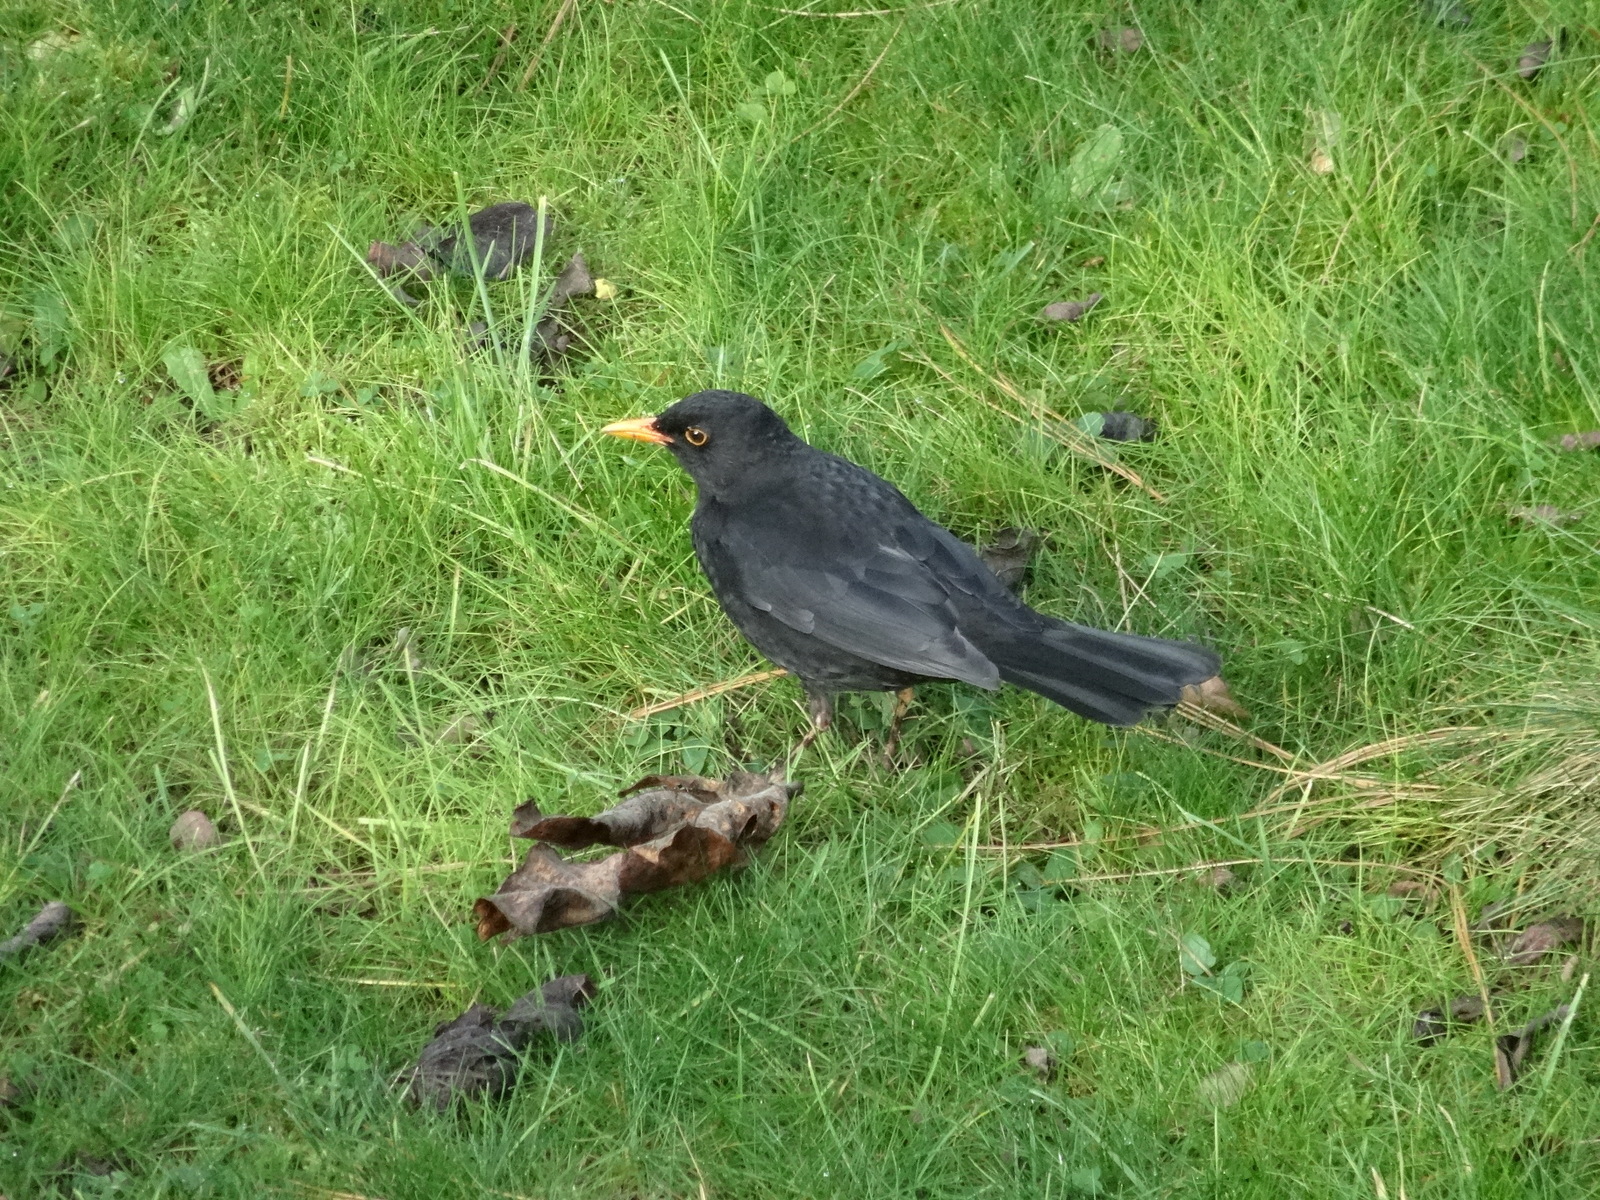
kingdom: Animalia
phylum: Chordata
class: Aves
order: Passeriformes
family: Turdidae
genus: Turdus
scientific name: Turdus merula
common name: Common blackbird
